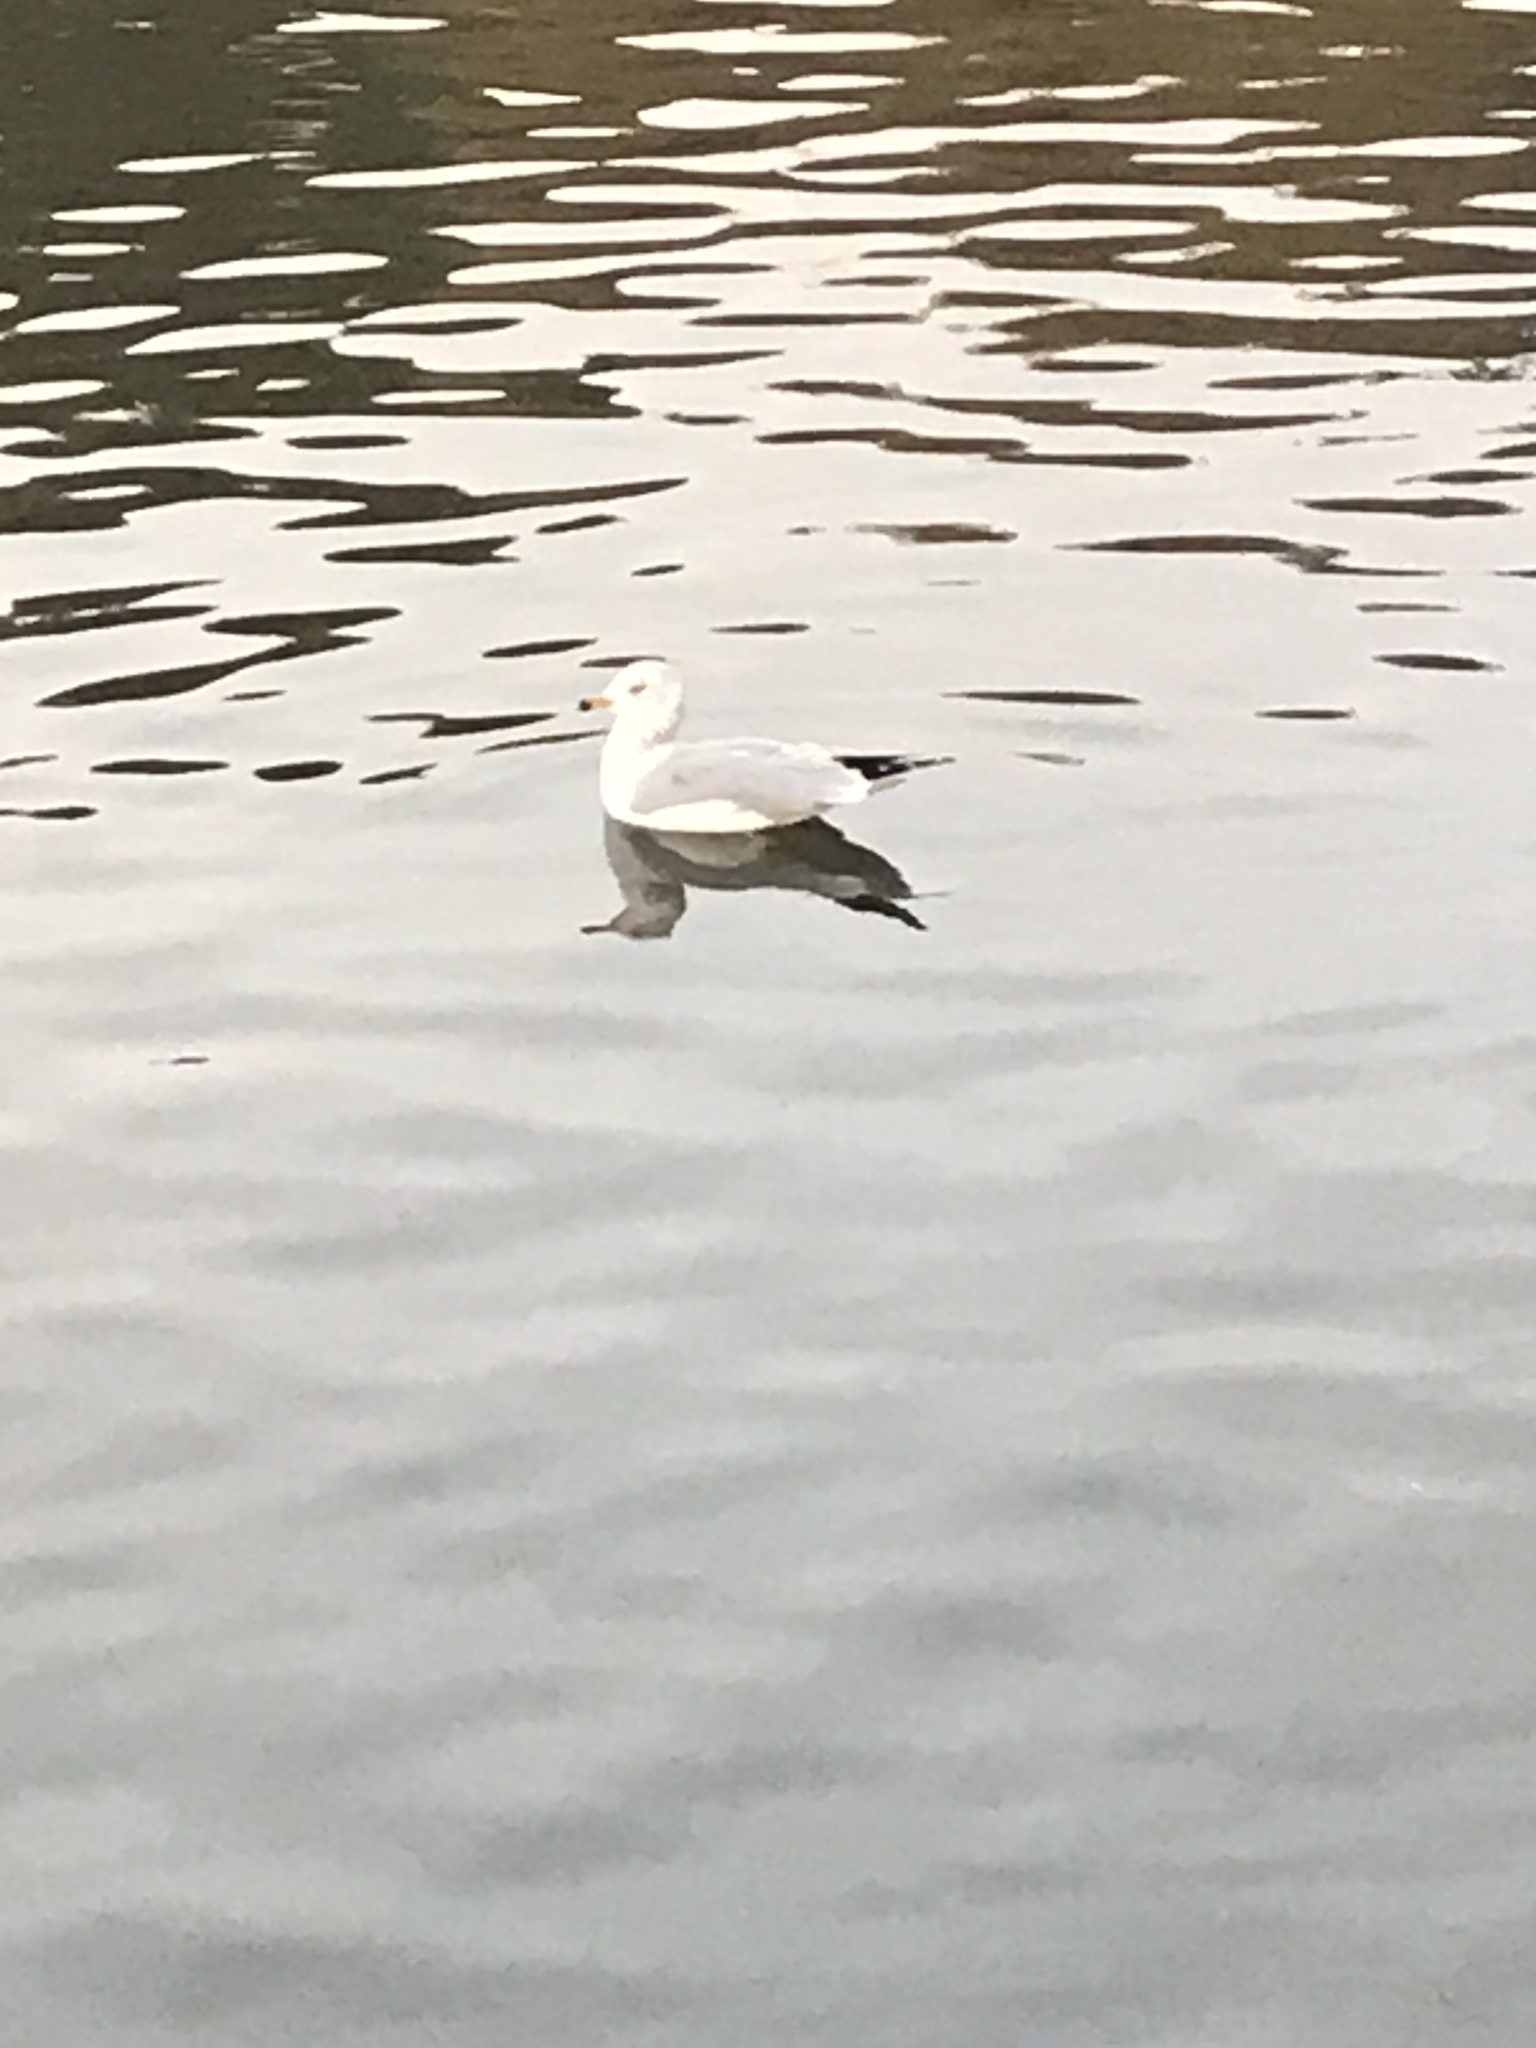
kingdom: Animalia
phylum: Chordata
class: Aves
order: Charadriiformes
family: Laridae
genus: Larus
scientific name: Larus delawarensis
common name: Ring-billed gull
